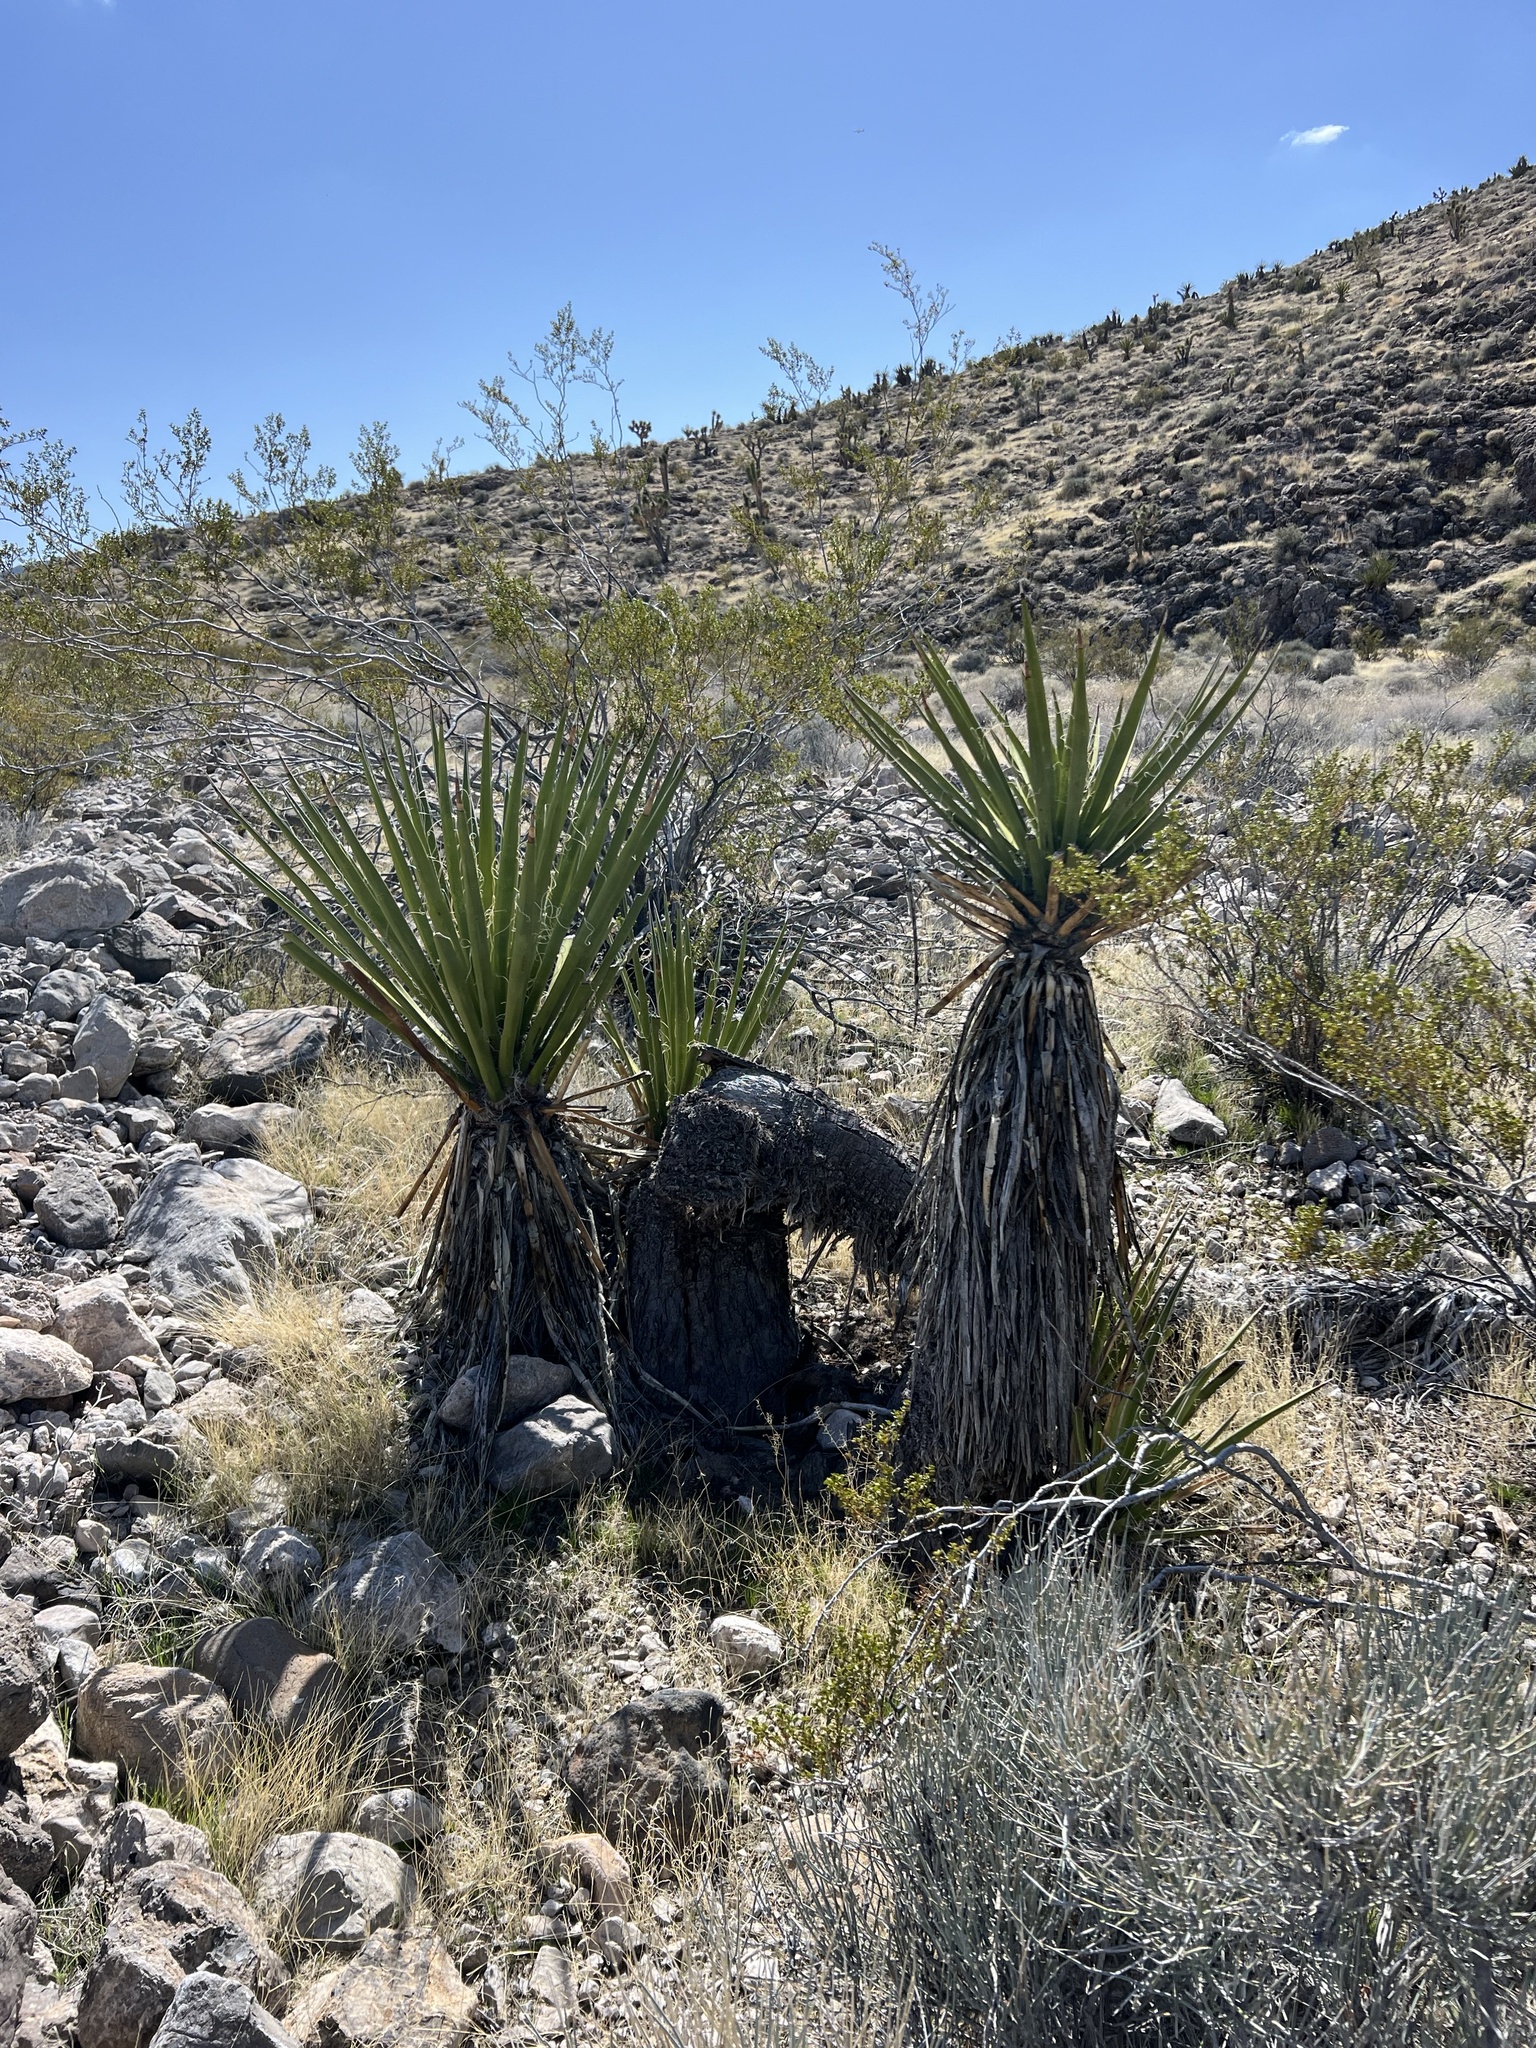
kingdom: Plantae
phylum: Tracheophyta
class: Liliopsida
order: Asparagales
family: Asparagaceae
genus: Yucca
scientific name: Yucca schidigera
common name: Mojave yucca
